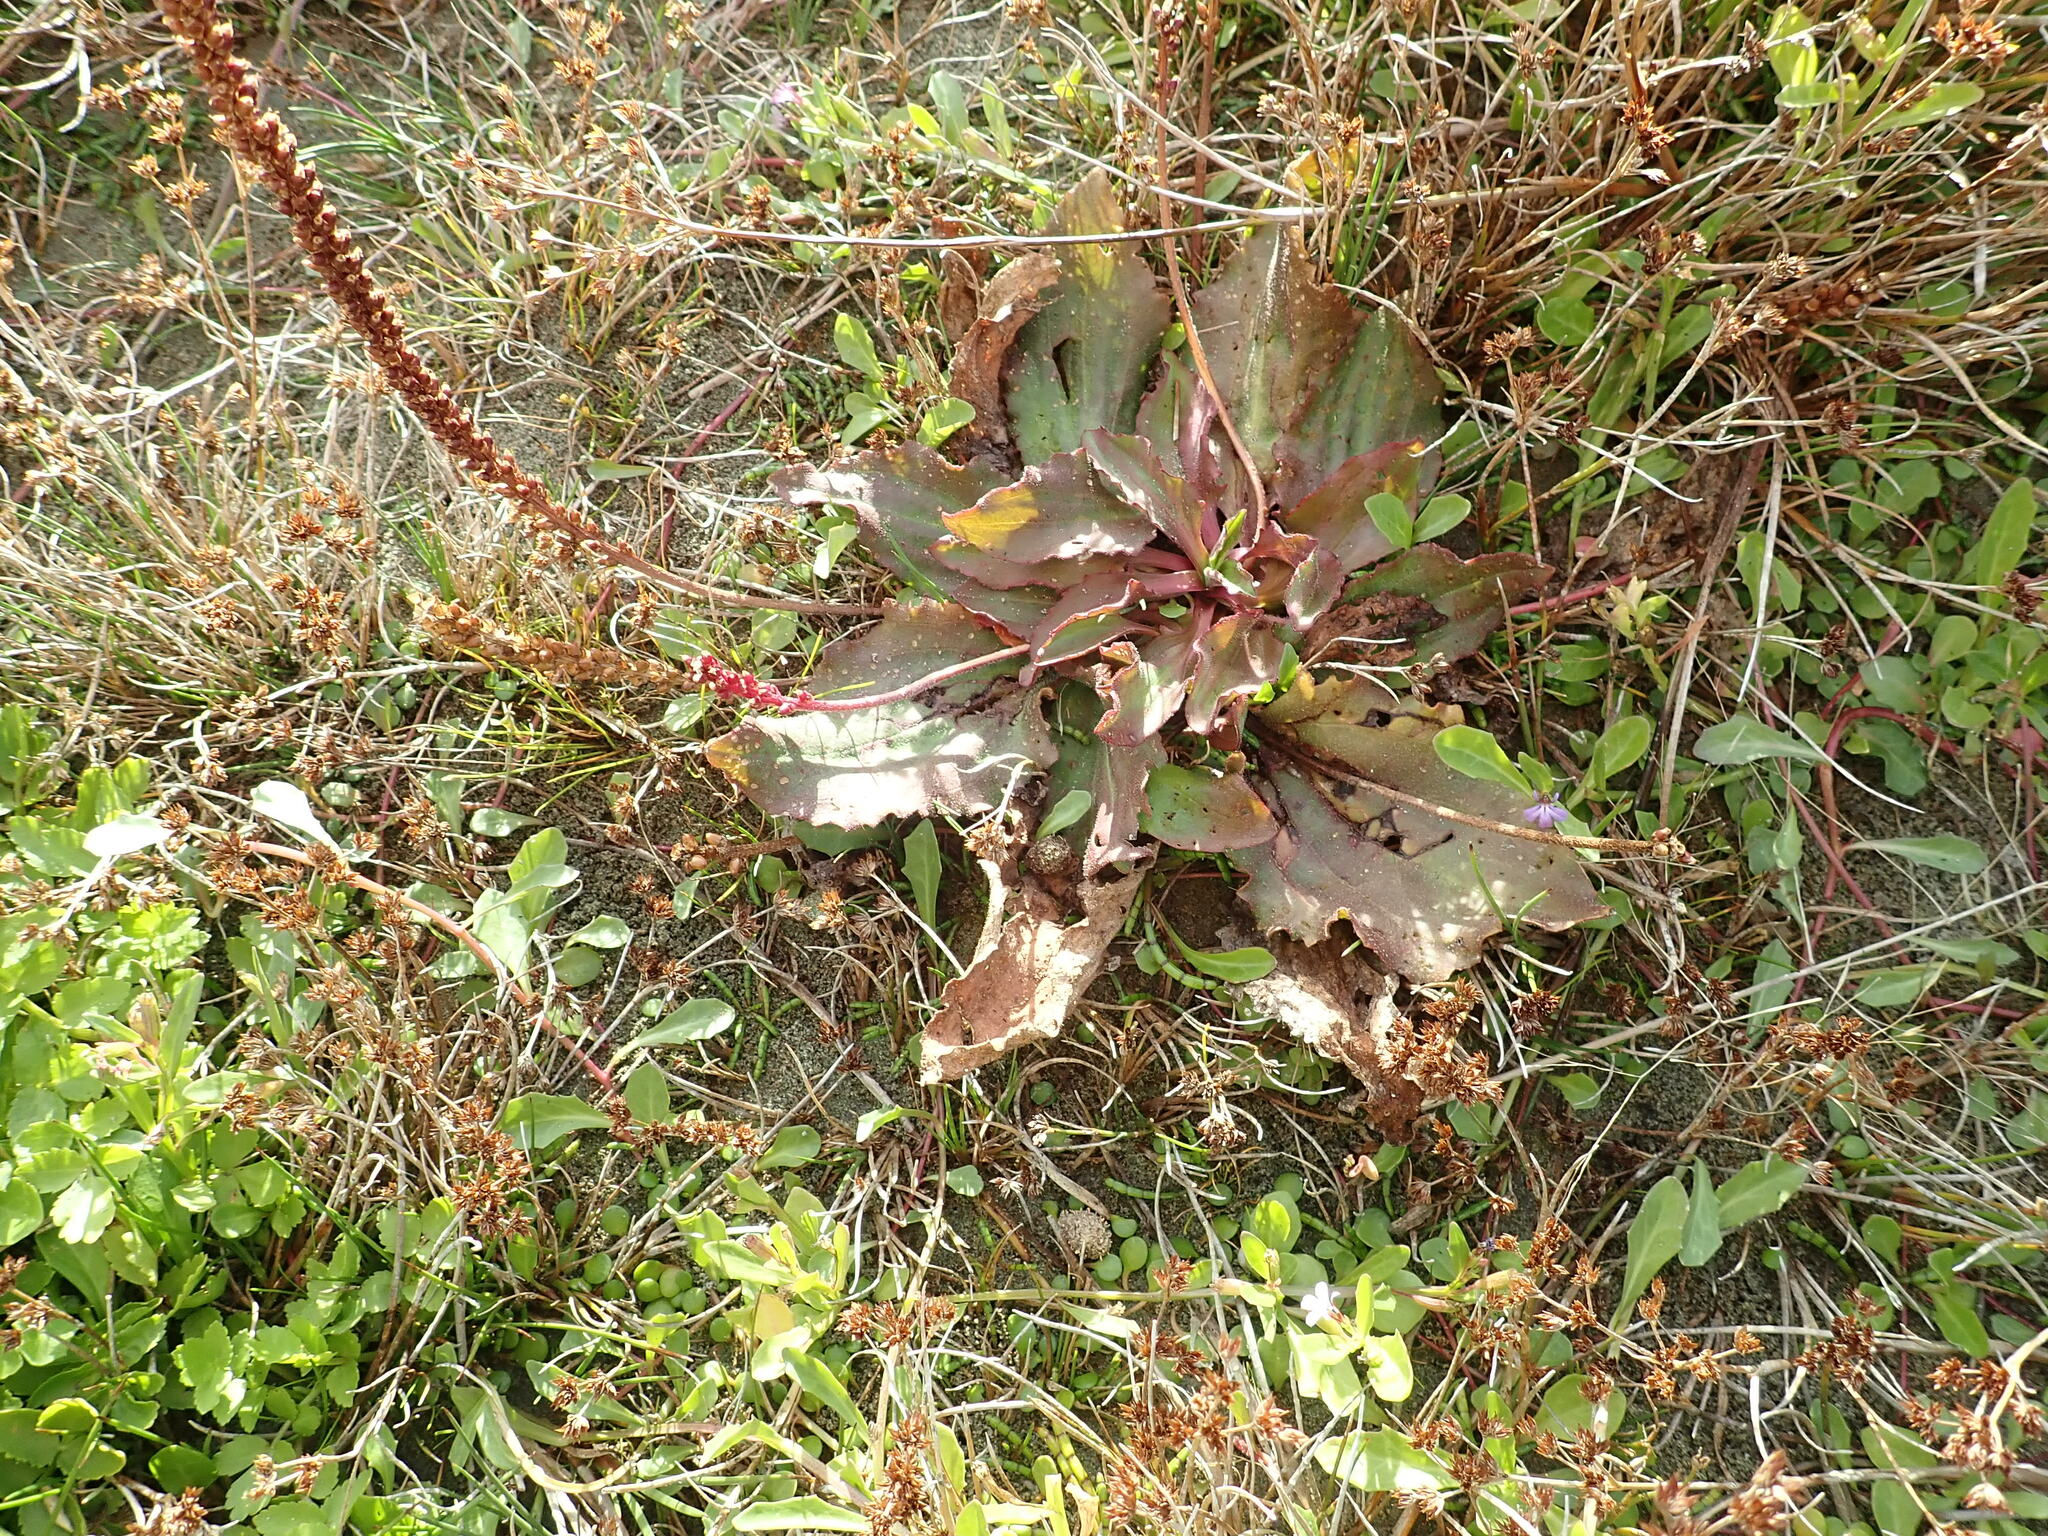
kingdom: Plantae
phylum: Tracheophyta
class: Magnoliopsida
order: Lamiales
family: Plantaginaceae
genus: Plantago
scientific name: Plantago major
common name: Common plantain
